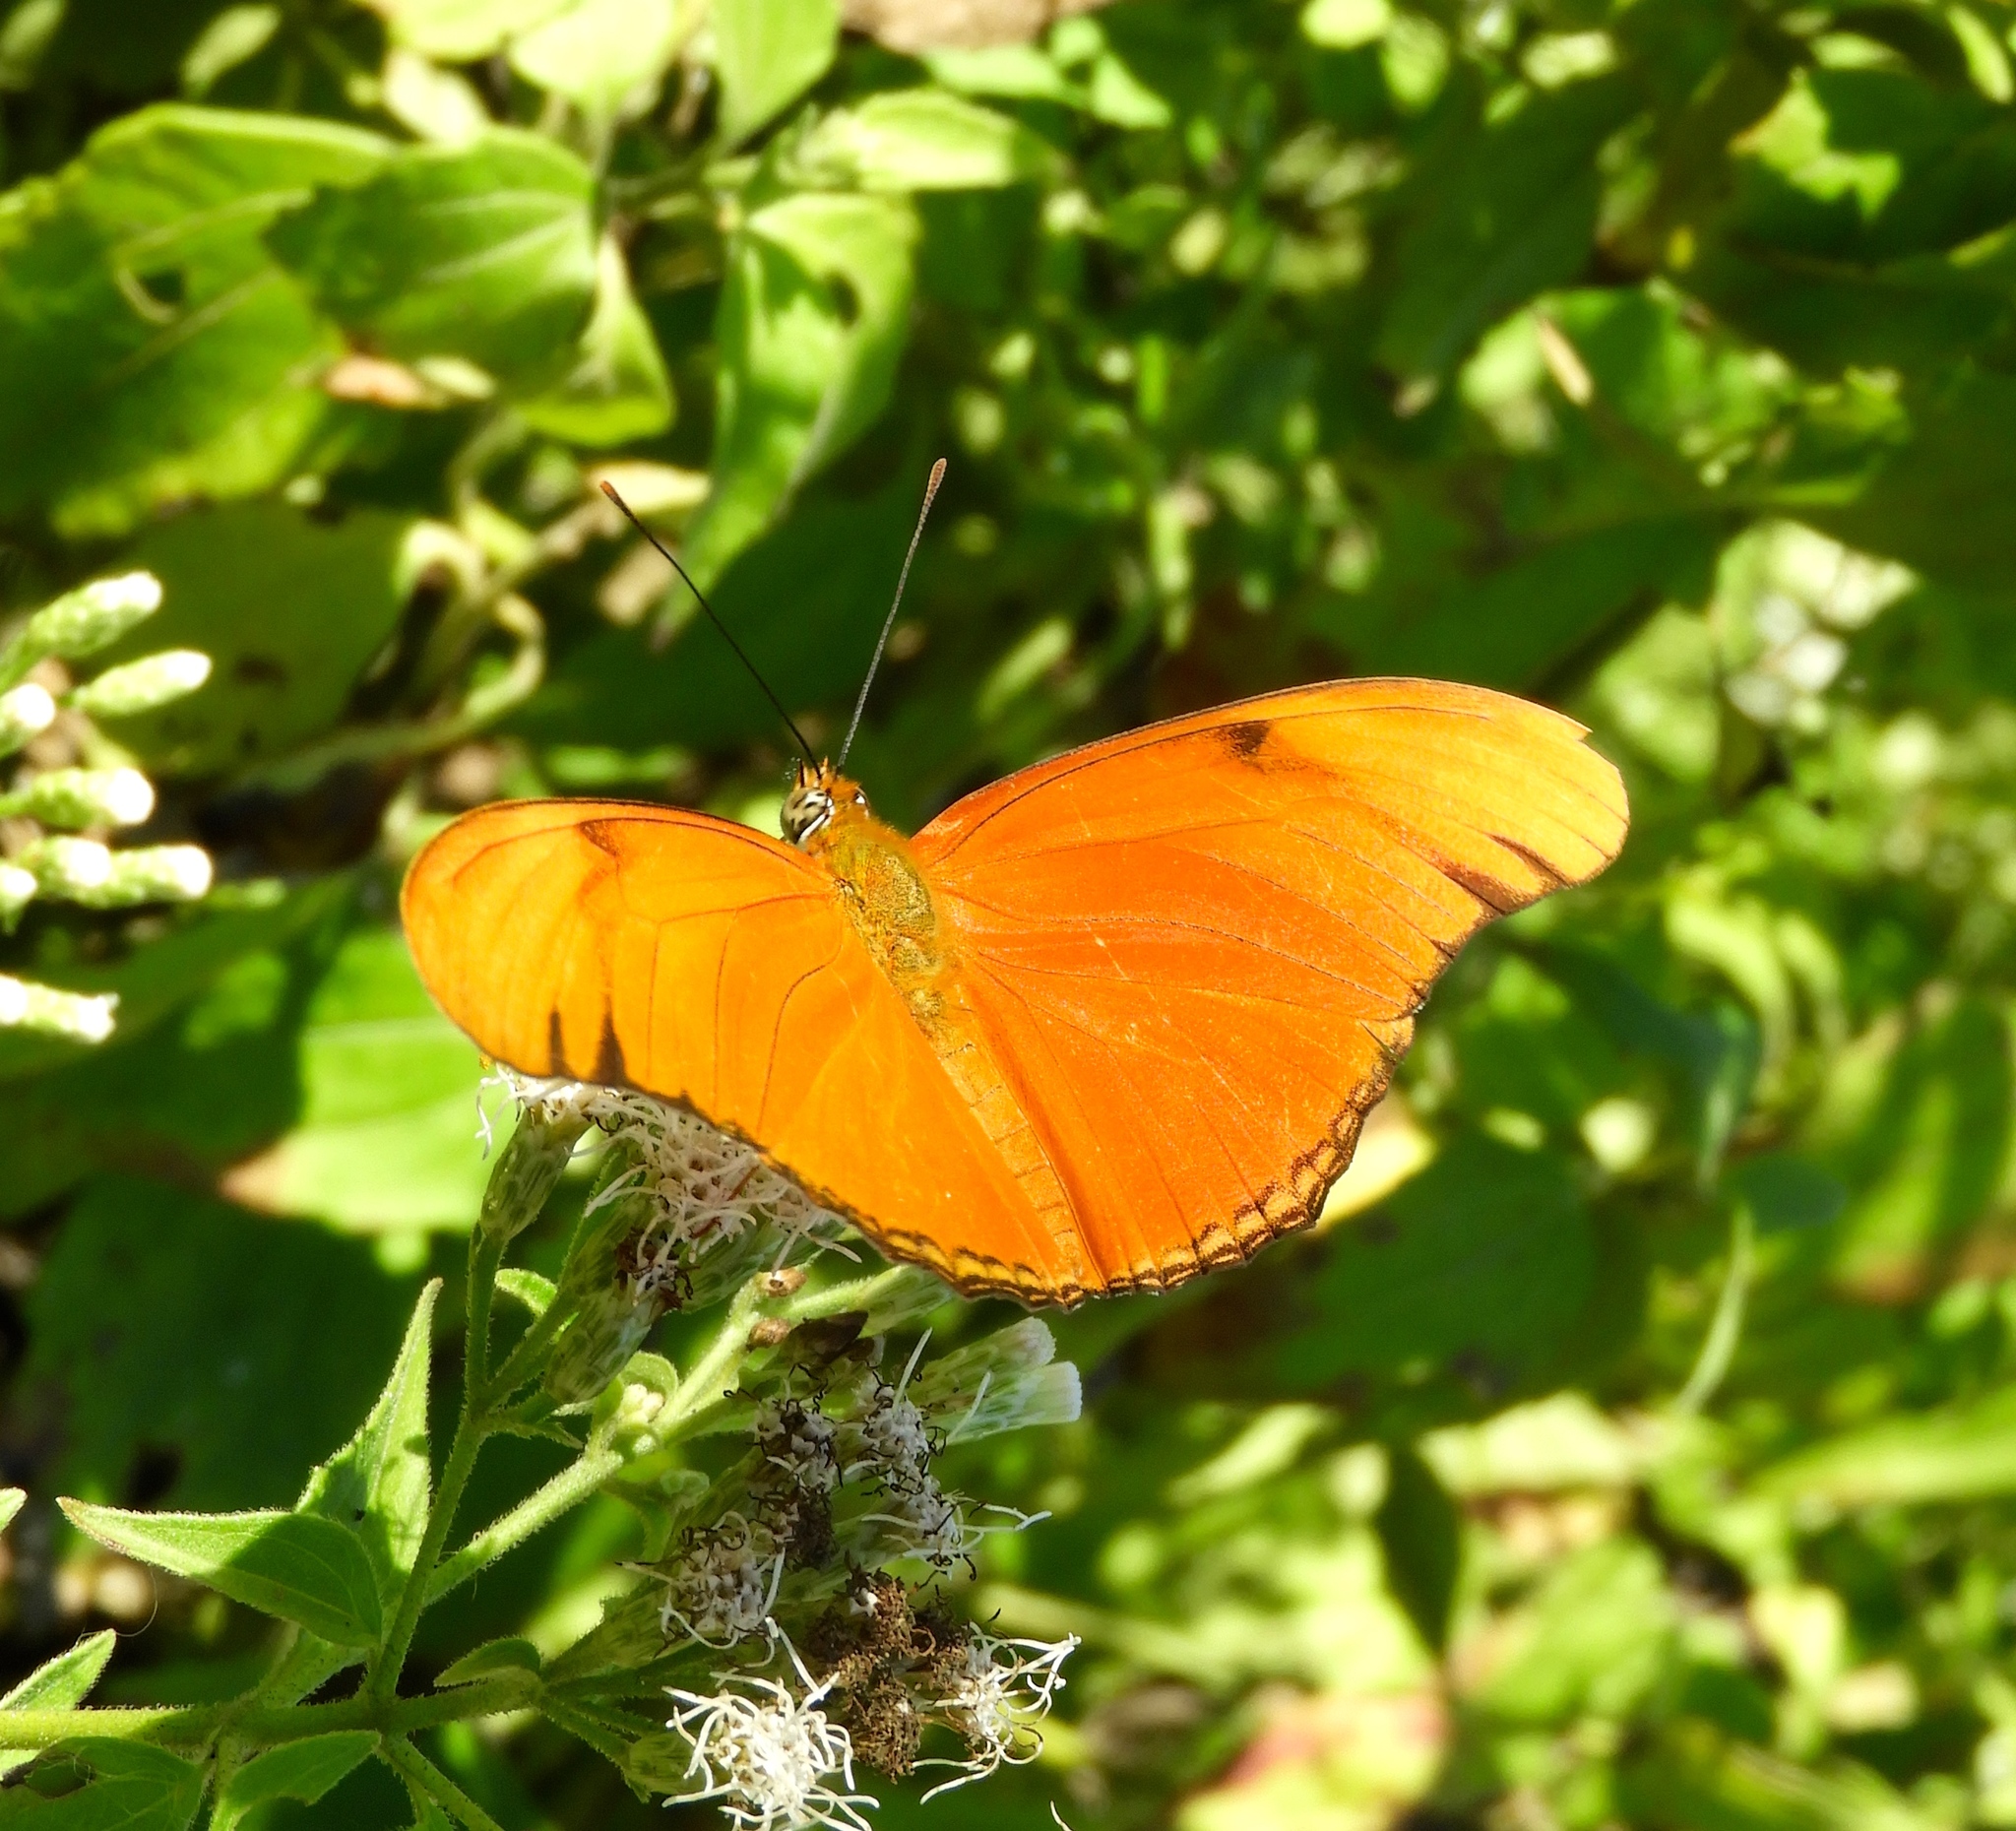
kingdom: Animalia
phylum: Arthropoda
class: Insecta
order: Lepidoptera
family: Nymphalidae
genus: Dryas
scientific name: Dryas iulia
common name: Flambeau
